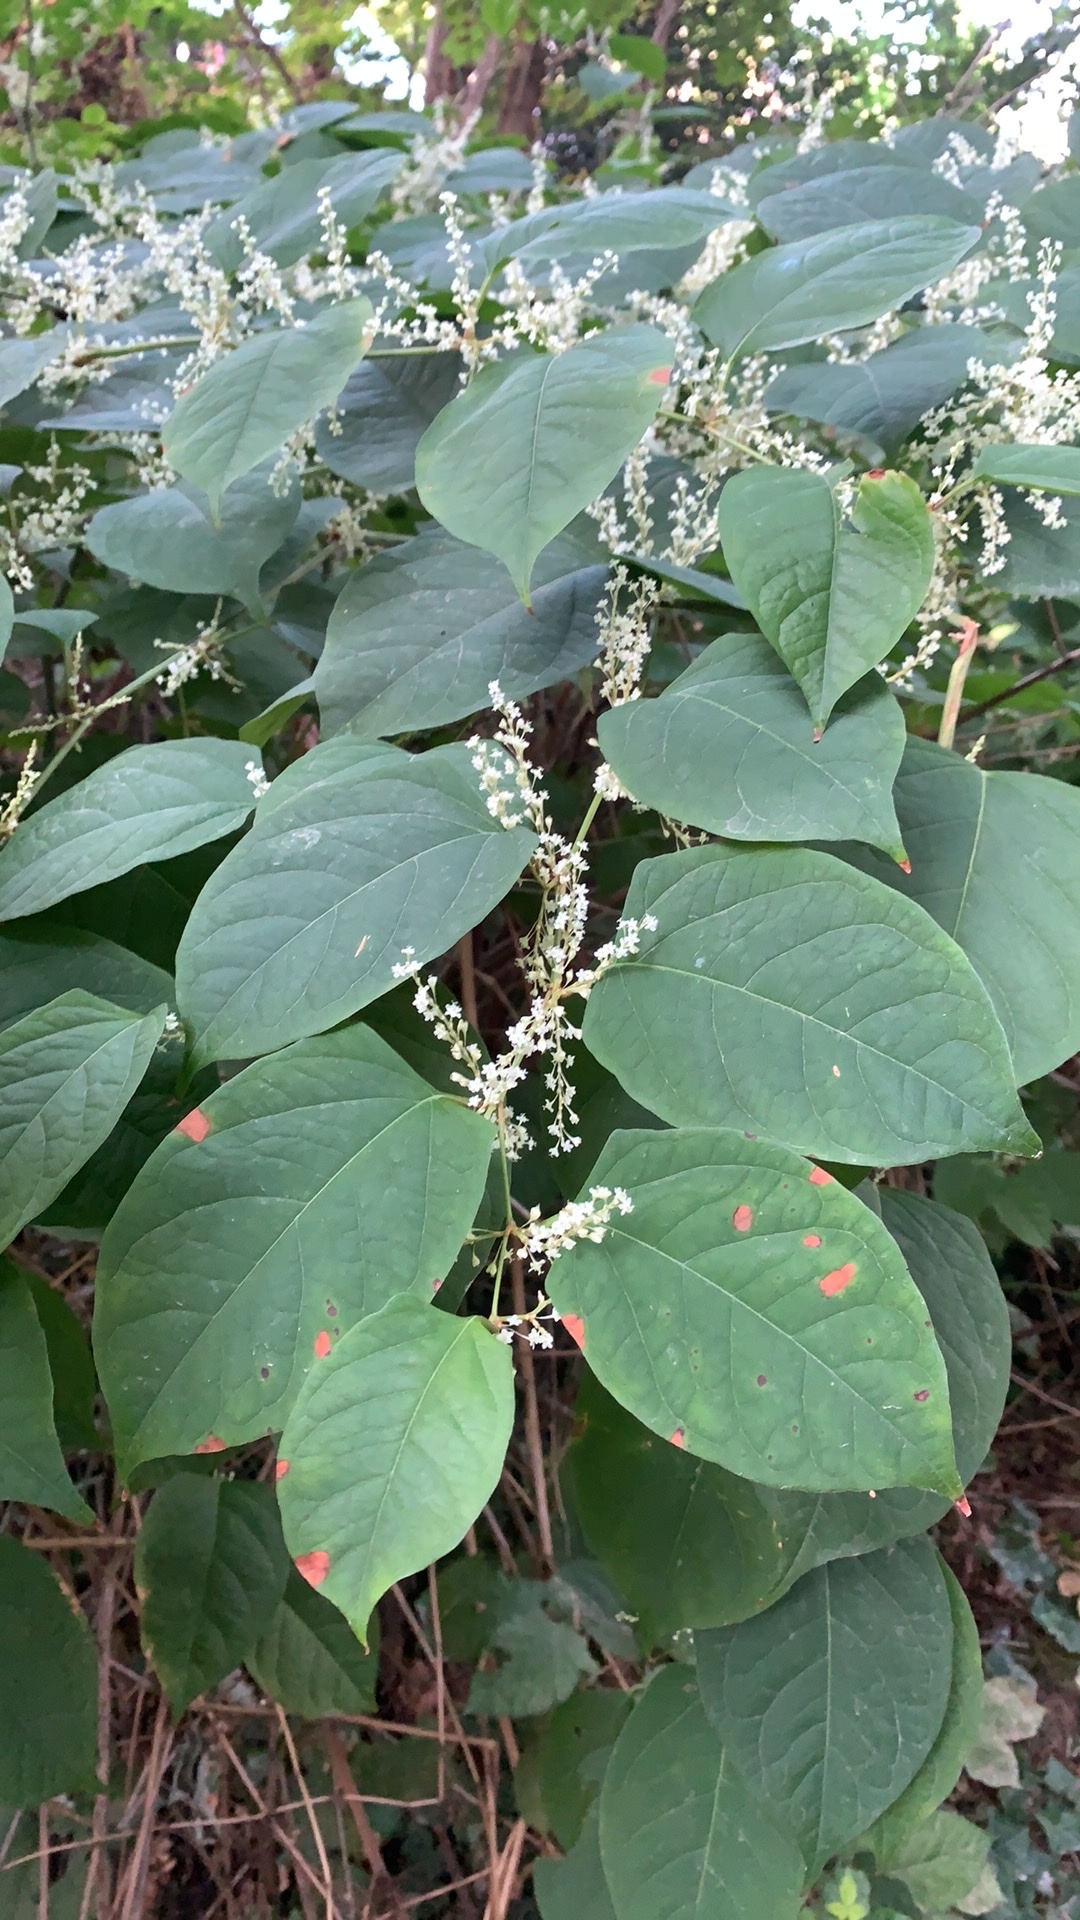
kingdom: Plantae
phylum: Tracheophyta
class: Magnoliopsida
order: Caryophyllales
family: Polygonaceae
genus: Reynoutria
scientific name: Reynoutria japonica
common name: Japanese knotweed
